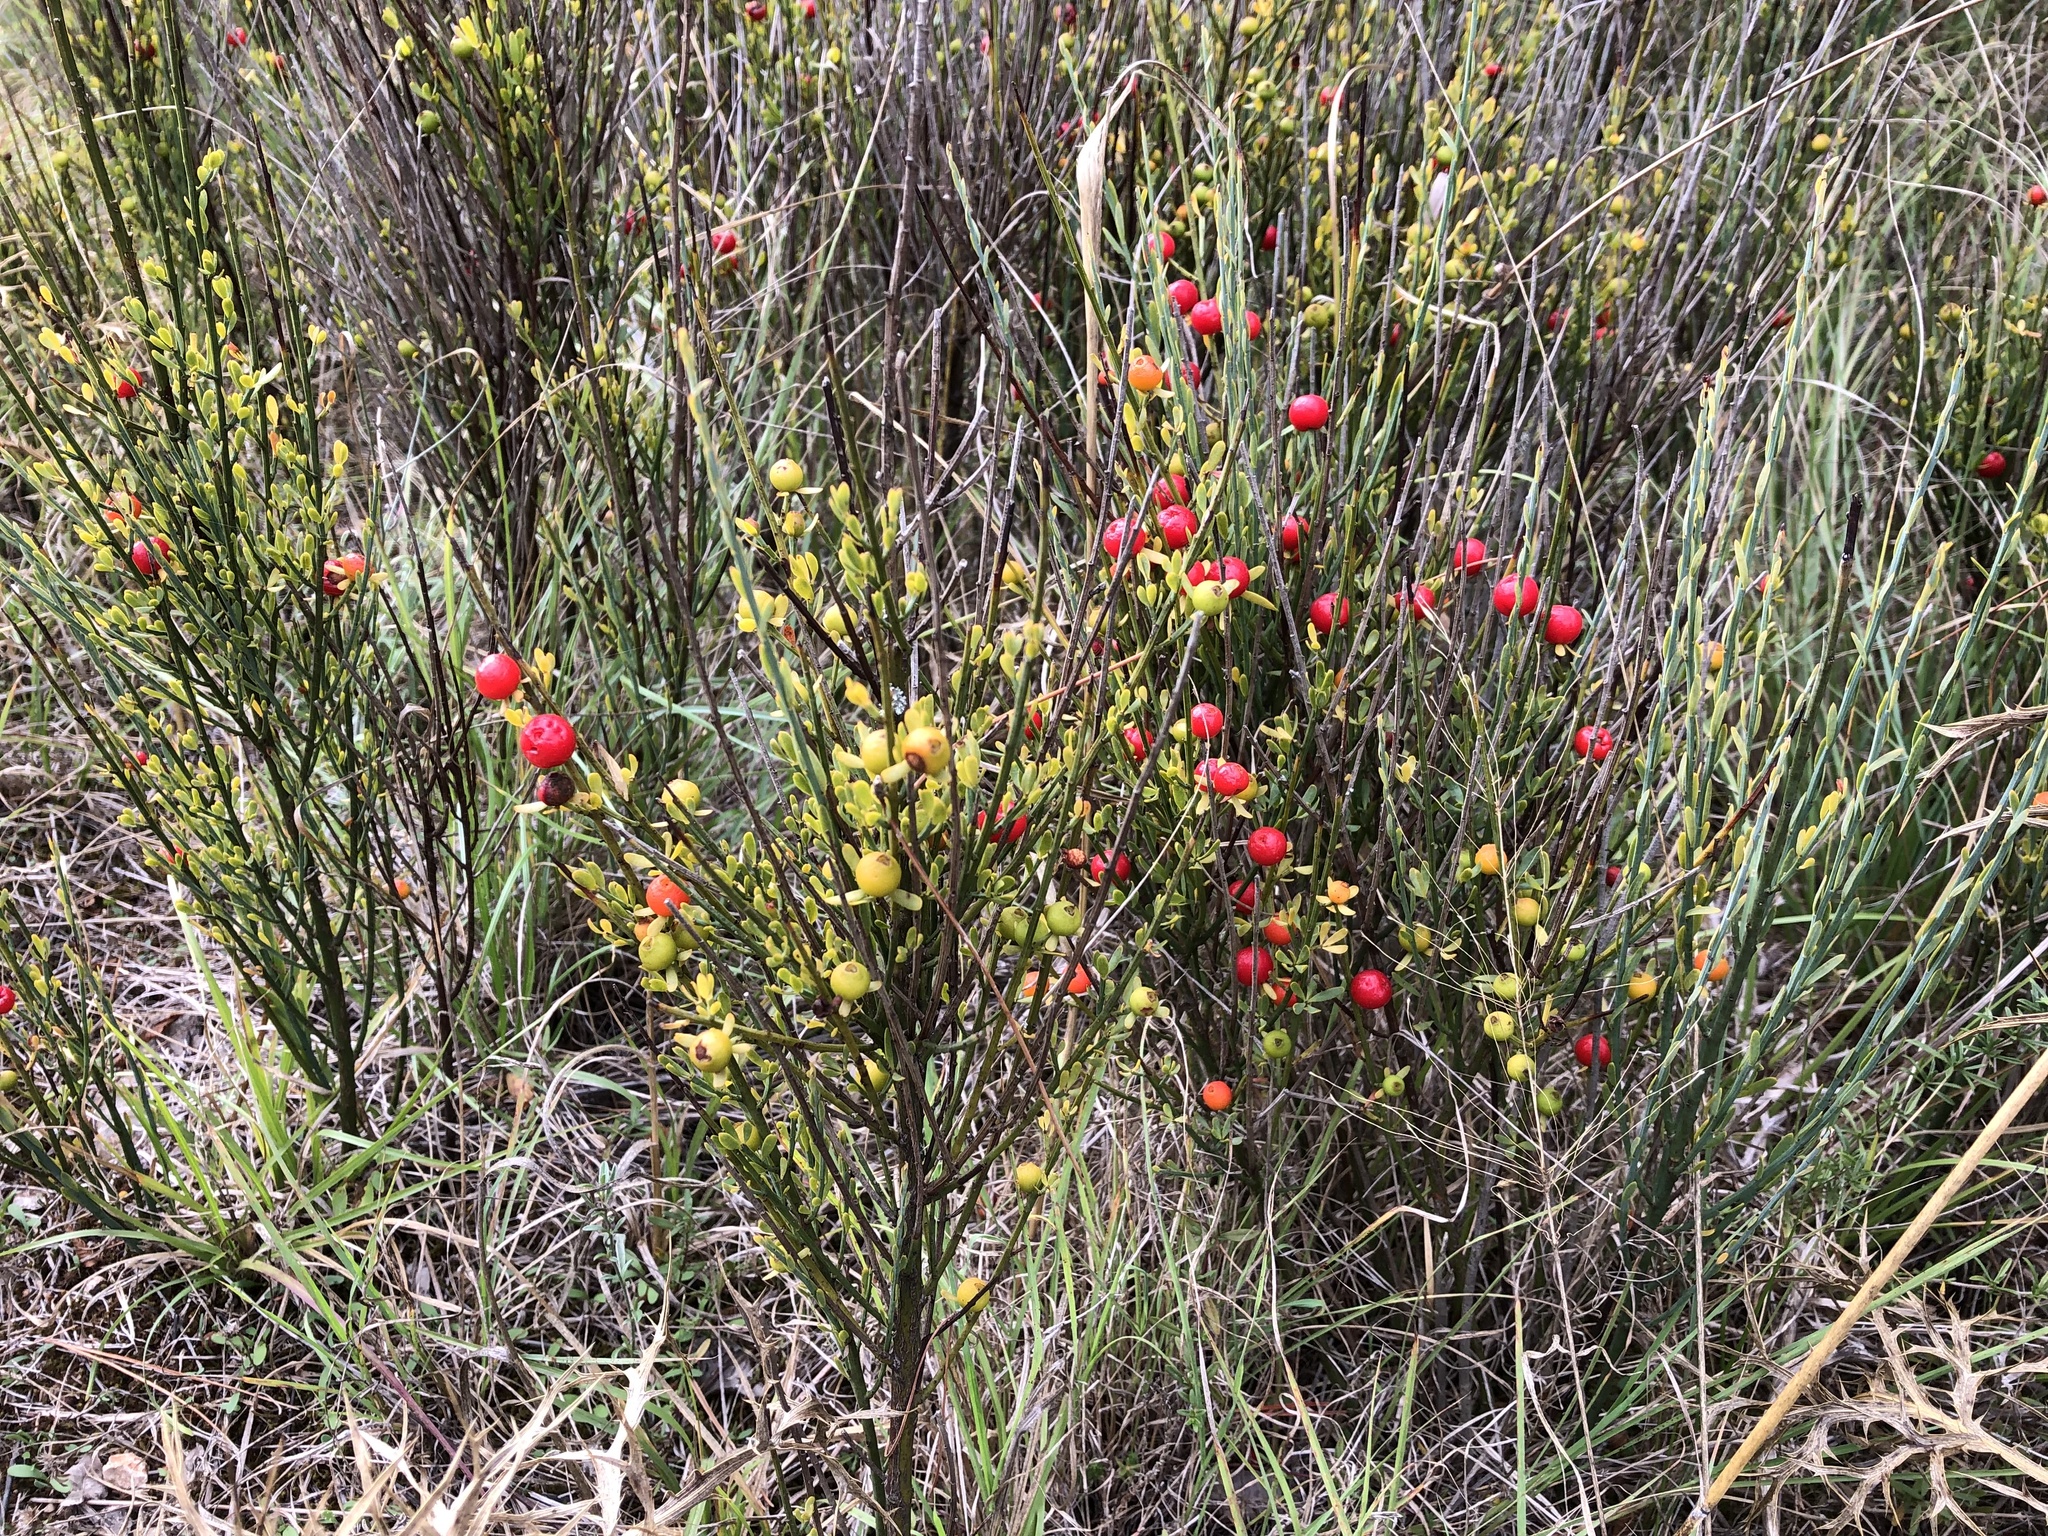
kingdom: Plantae
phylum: Tracheophyta
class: Magnoliopsida
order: Santalales
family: Santalaceae
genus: Osyris
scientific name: Osyris alba
